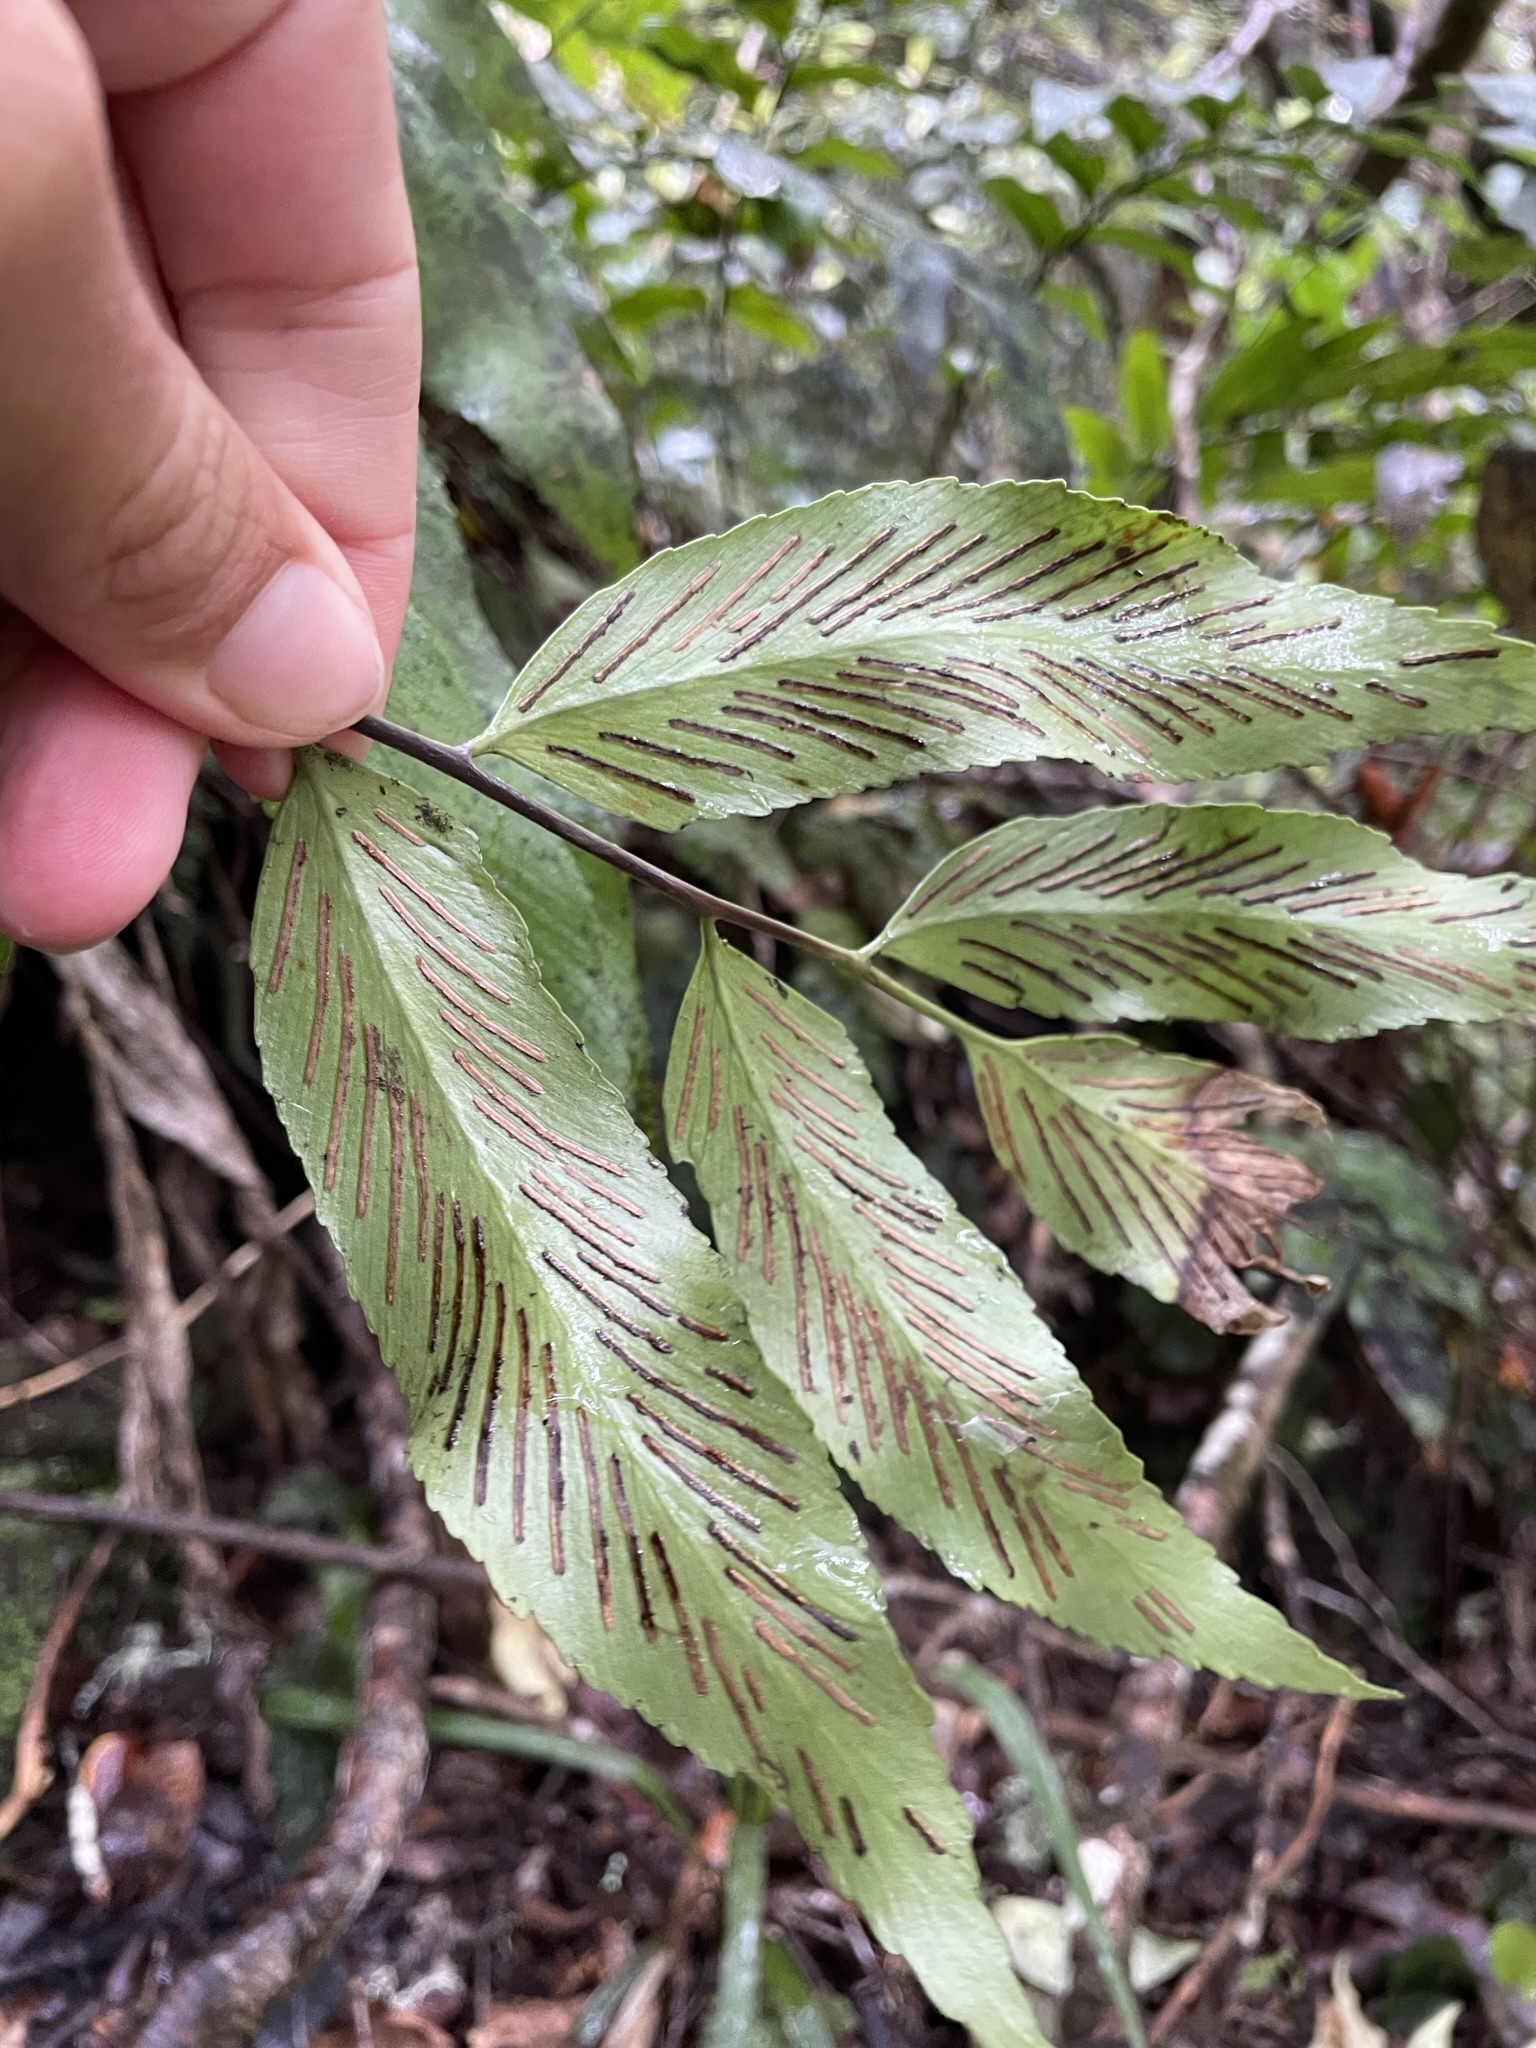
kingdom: Plantae
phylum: Tracheophyta
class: Polypodiopsida
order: Polypodiales
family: Aspleniaceae
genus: Asplenium
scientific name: Asplenium oblongifolium
